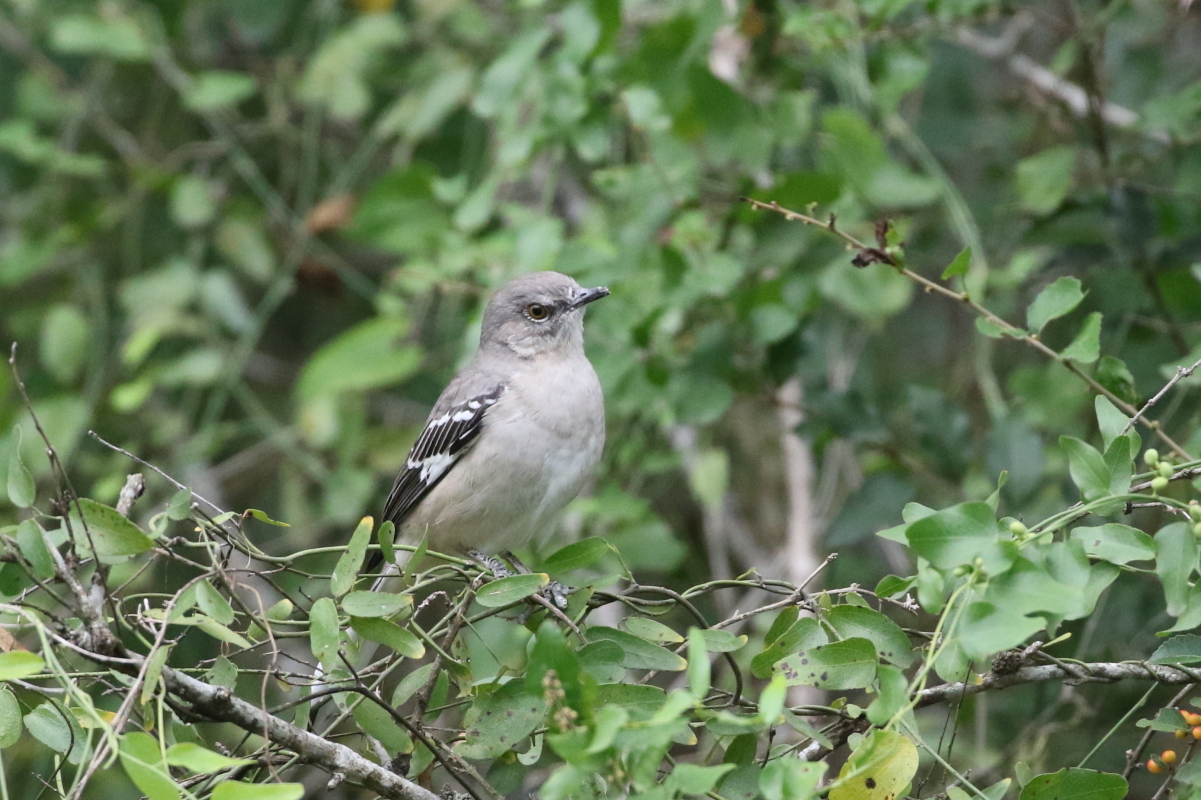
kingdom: Animalia
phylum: Chordata
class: Aves
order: Passeriformes
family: Mimidae
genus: Mimus
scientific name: Mimus polyglottos
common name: Northern mockingbird
